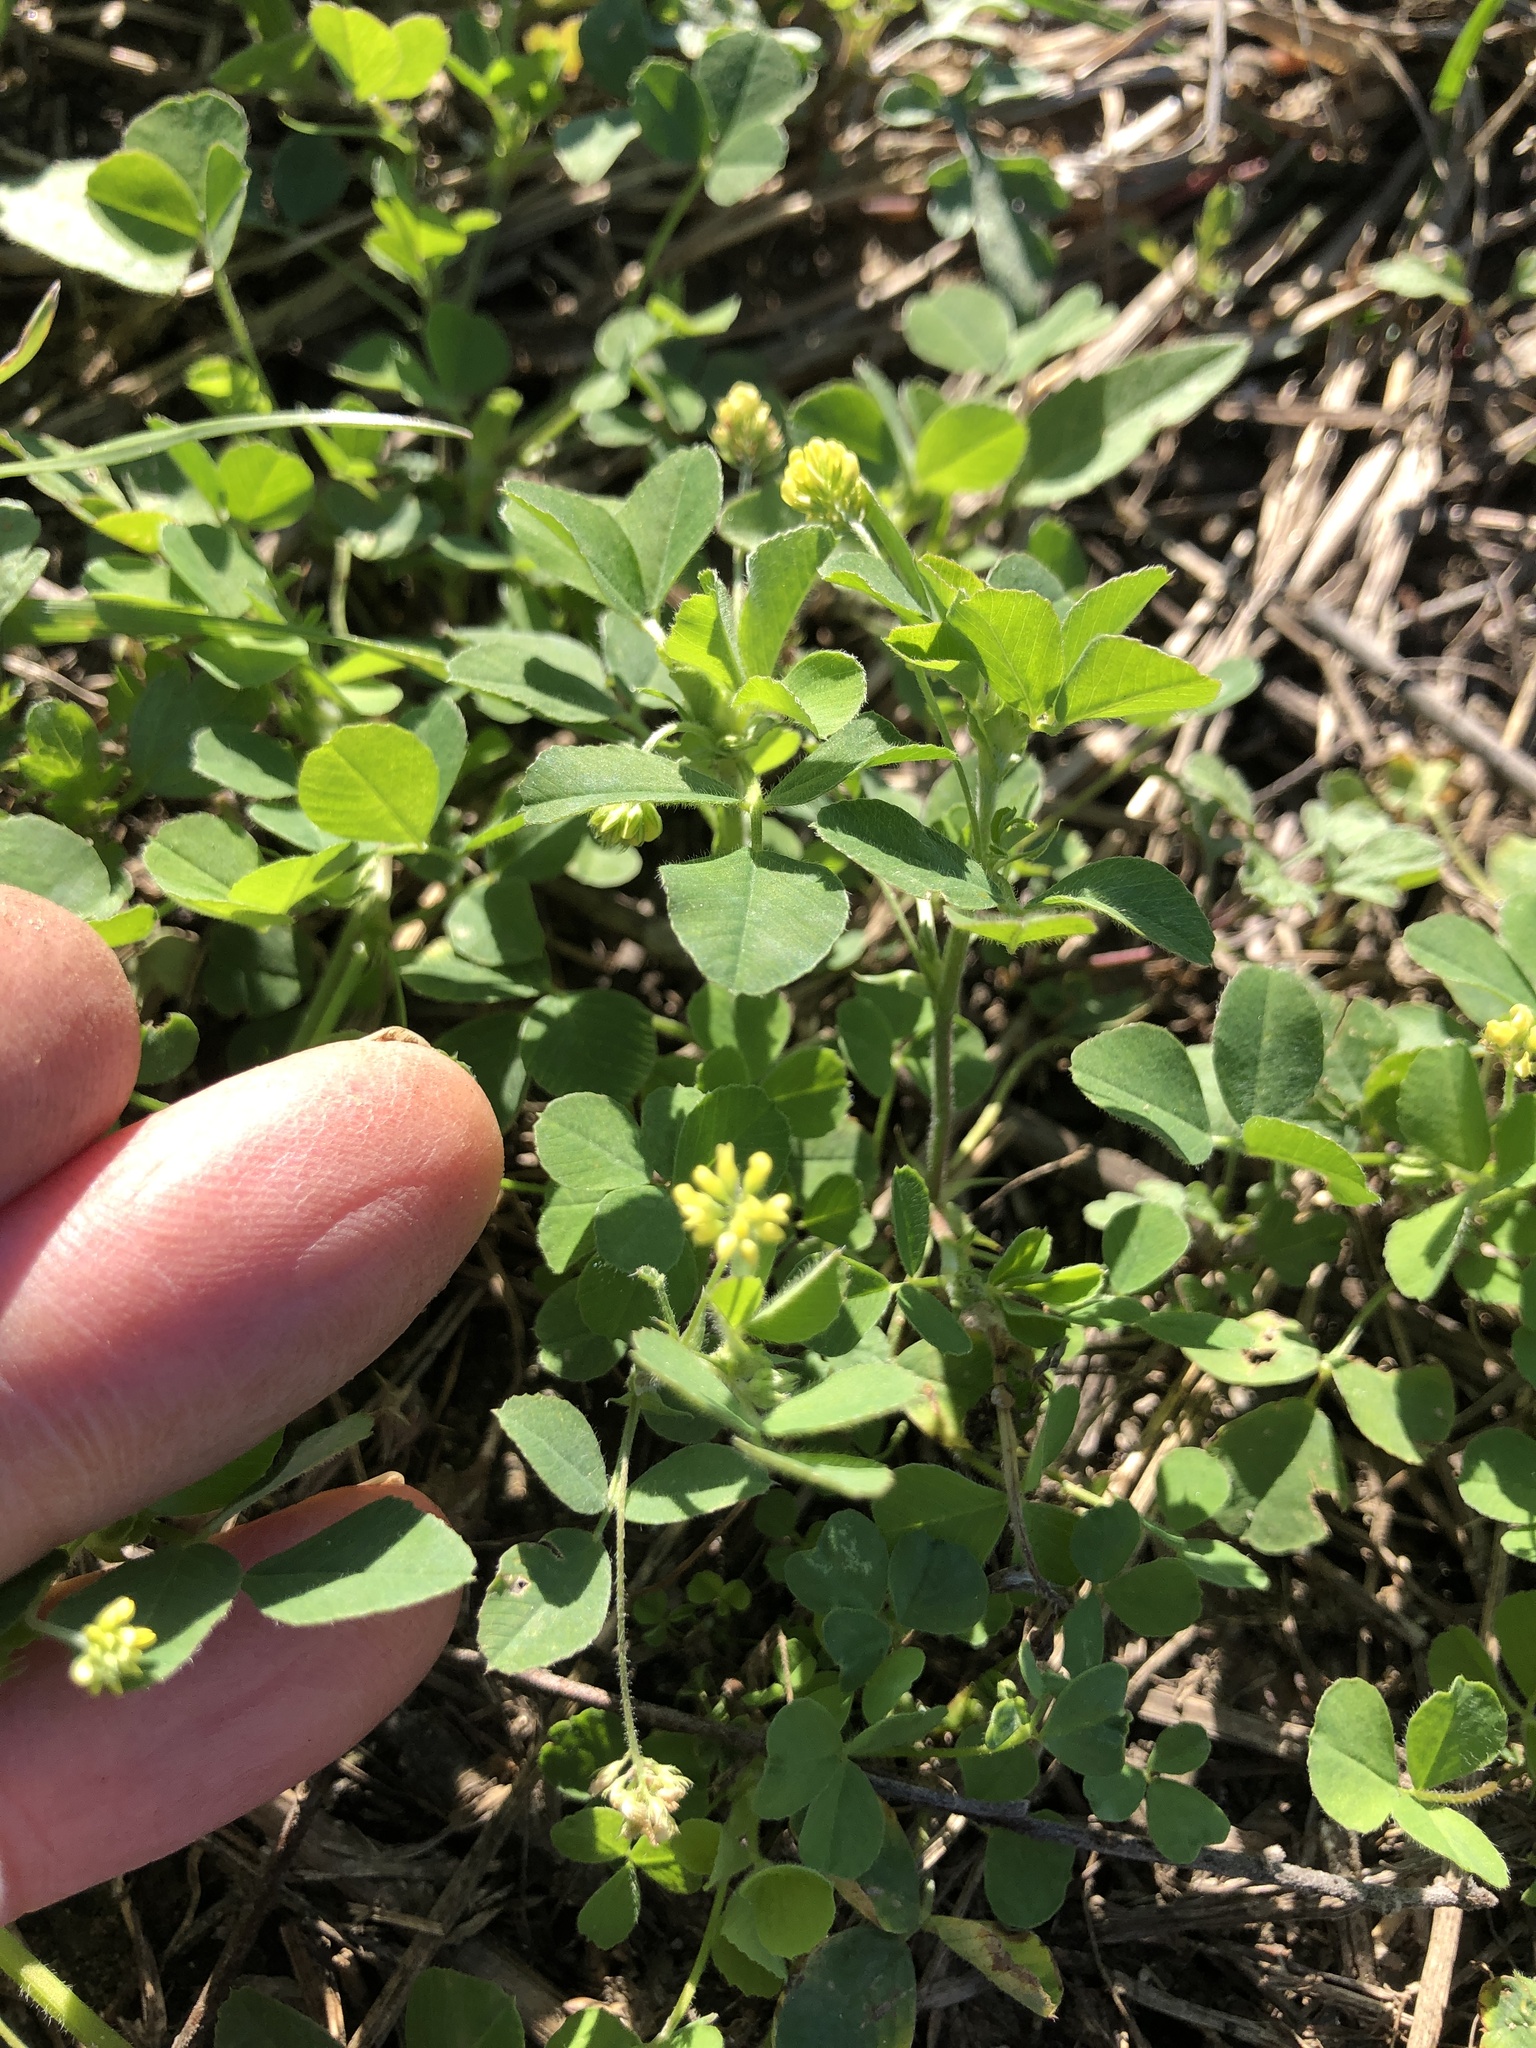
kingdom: Plantae
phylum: Tracheophyta
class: Magnoliopsida
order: Fabales
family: Fabaceae
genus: Medicago
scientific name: Medicago lupulina
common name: Black medick
